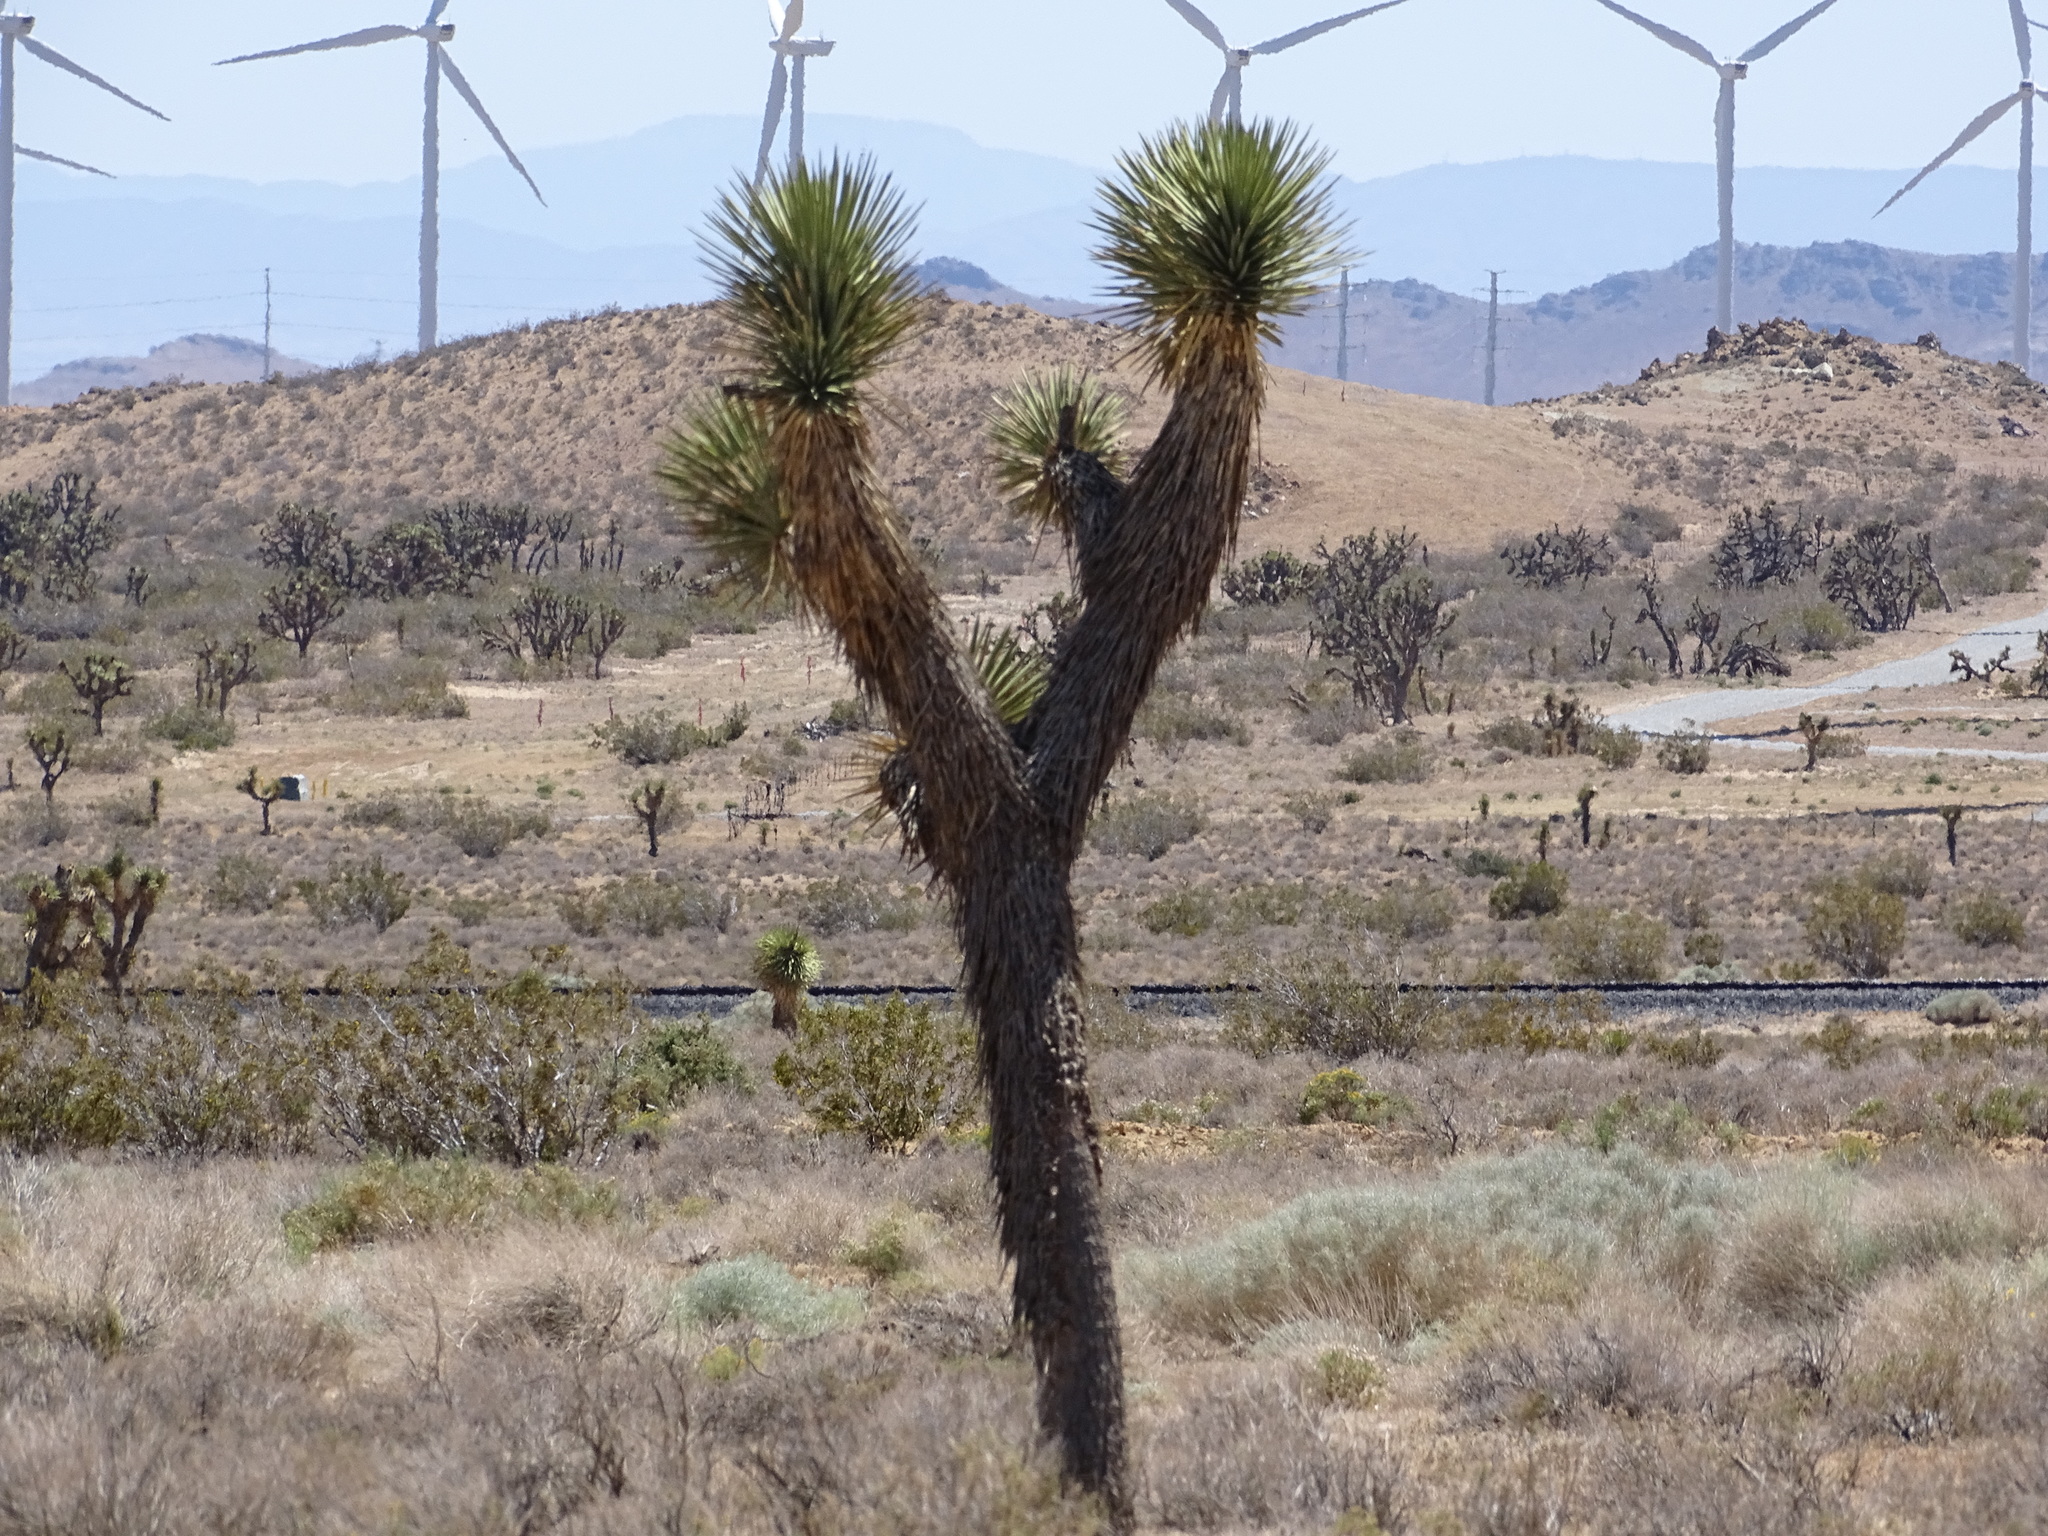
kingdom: Plantae
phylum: Tracheophyta
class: Liliopsida
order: Asparagales
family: Asparagaceae
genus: Yucca
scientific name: Yucca brevifolia
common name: Joshua tree
